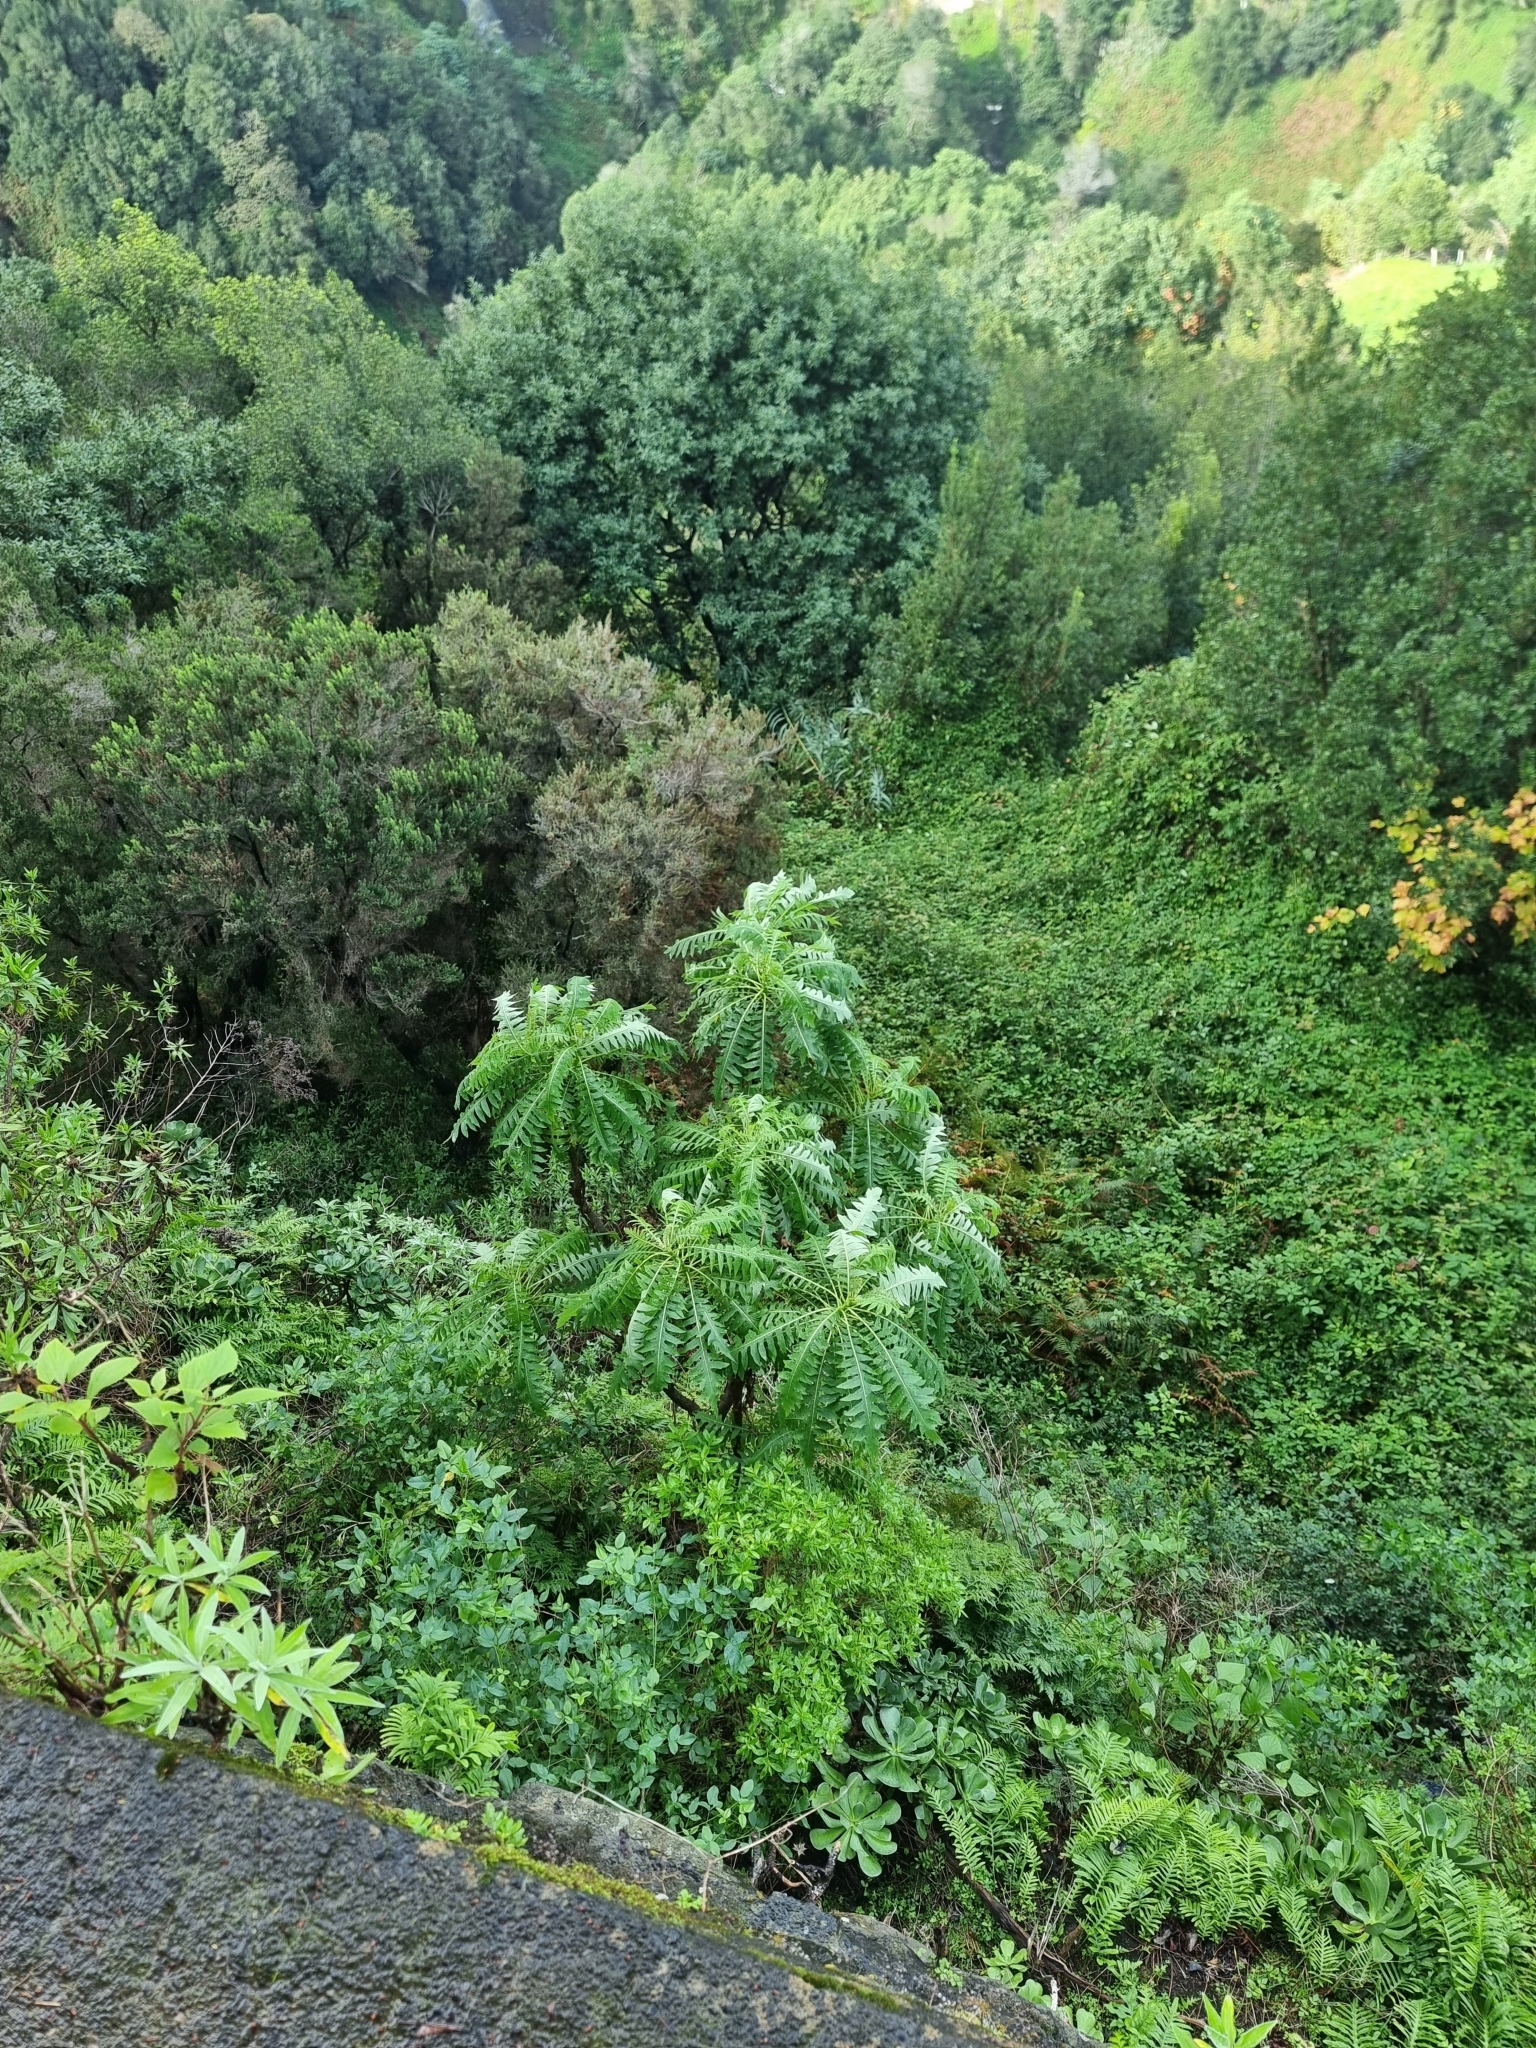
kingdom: Plantae
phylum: Tracheophyta
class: Magnoliopsida
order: Asterales
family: Asteraceae
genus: Sonchus
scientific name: Sonchus pinnatus
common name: Wing-leaved sow-thistle
